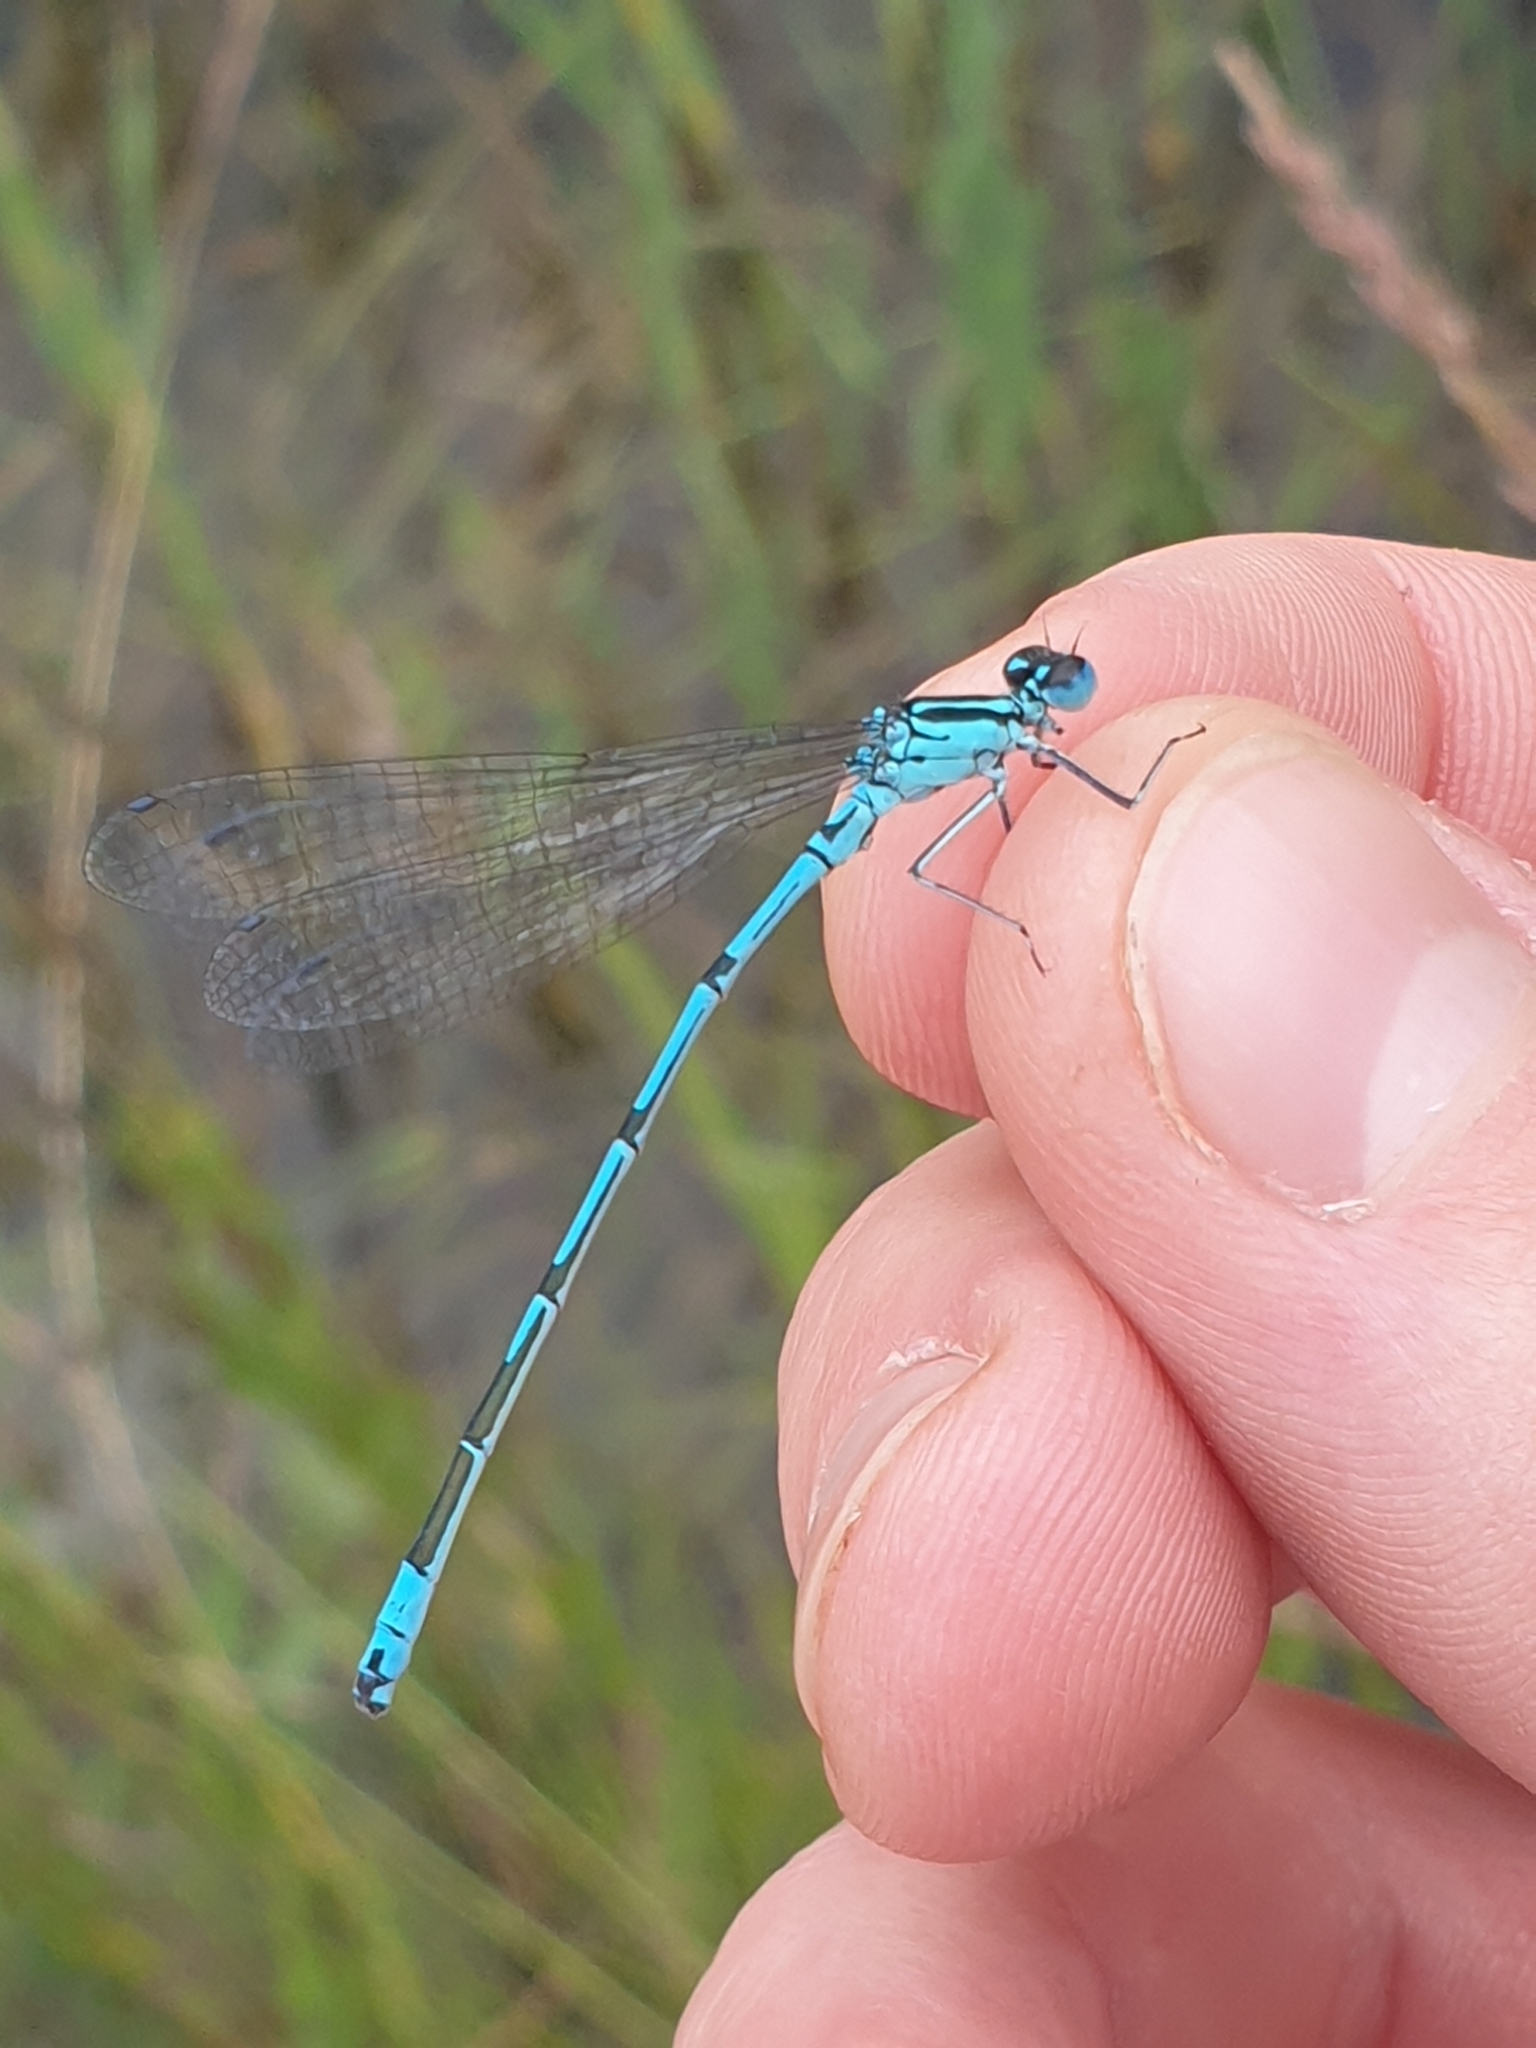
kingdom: Animalia
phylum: Arthropoda
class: Insecta
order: Odonata
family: Coenagrionidae
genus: Coenagrion
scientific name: Coenagrion puella
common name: Azure damselfly
